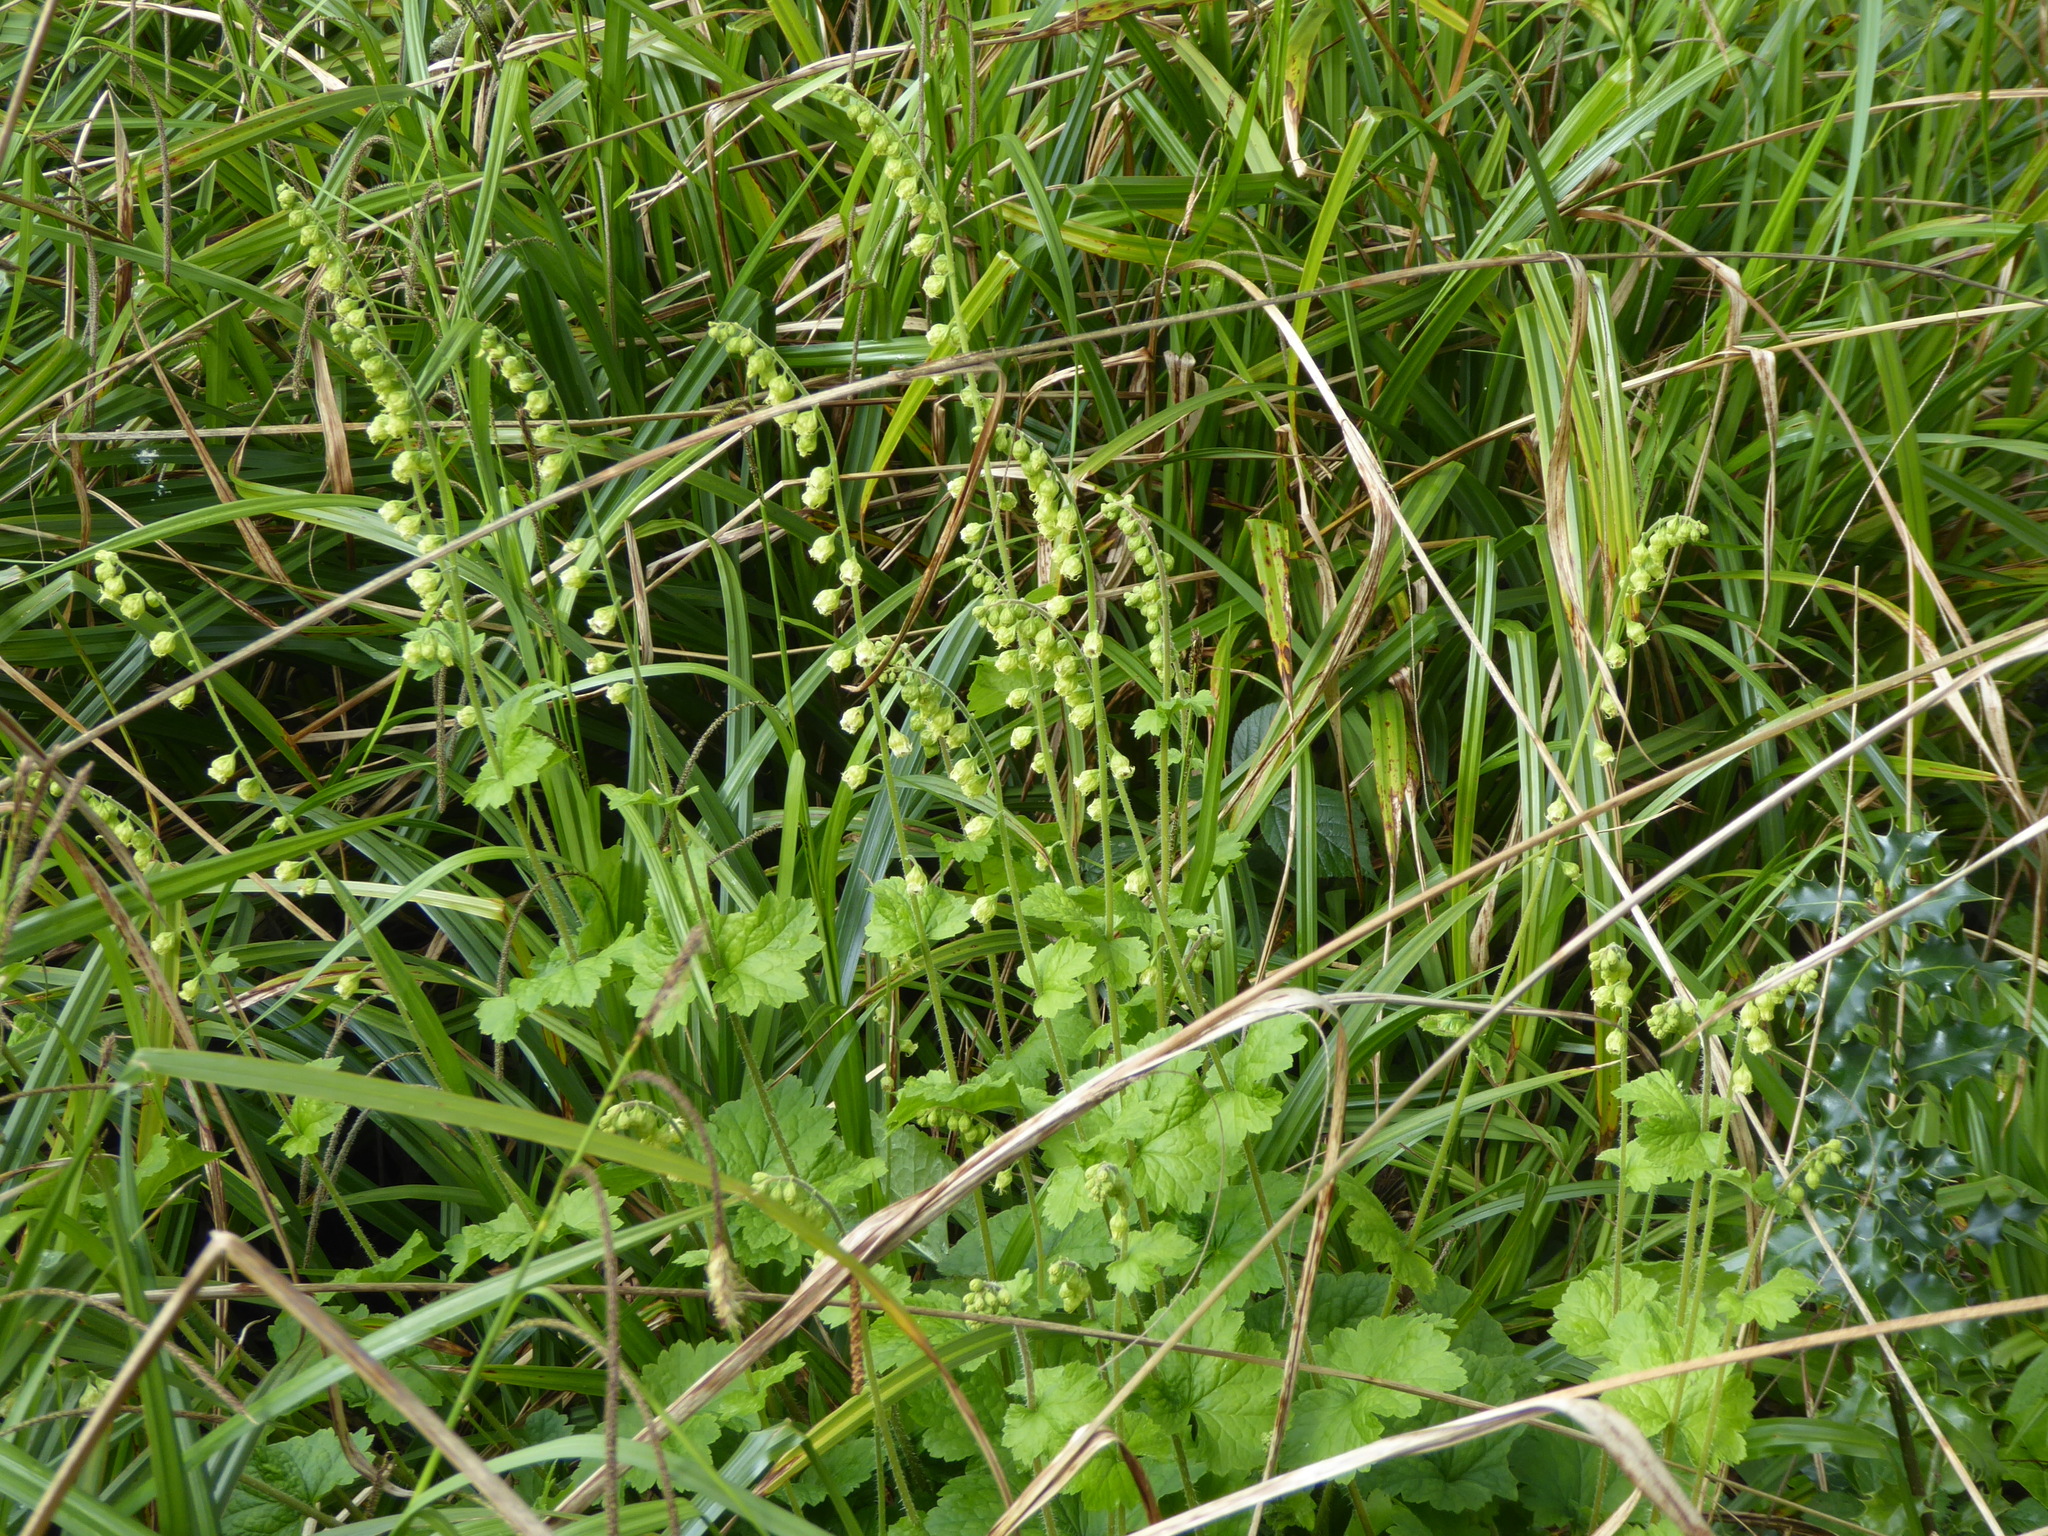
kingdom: Plantae
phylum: Tracheophyta
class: Magnoliopsida
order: Saxifragales
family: Saxifragaceae
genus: Tellima
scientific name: Tellima grandiflora
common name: Fringecups
